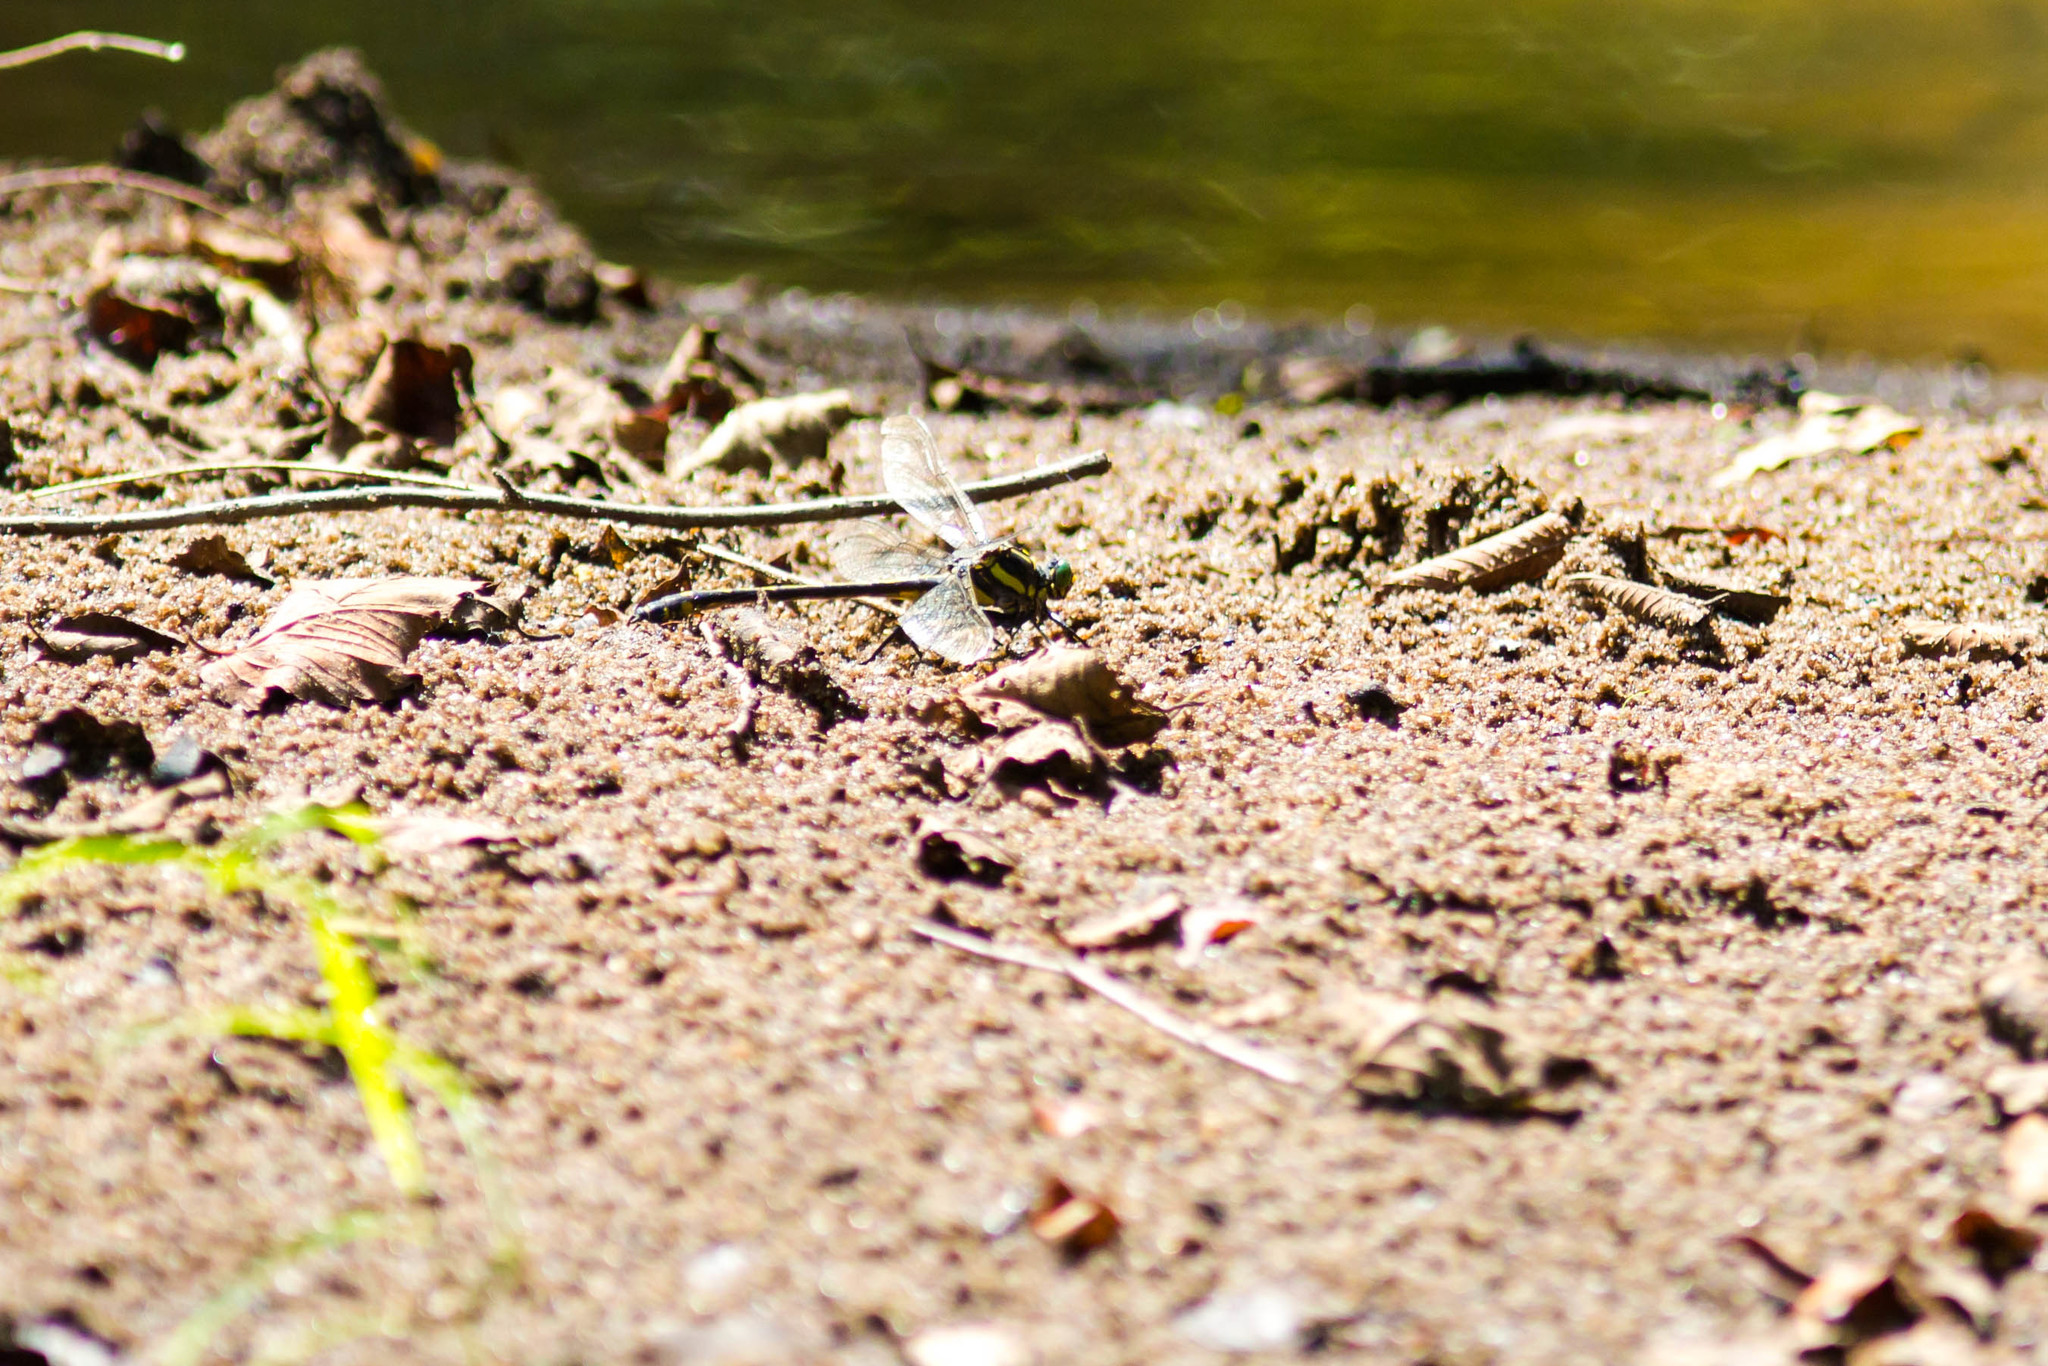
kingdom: Animalia
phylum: Arthropoda
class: Insecta
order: Odonata
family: Gomphidae
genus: Hagenius
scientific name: Hagenius brevistylus
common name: Dragonhunter
